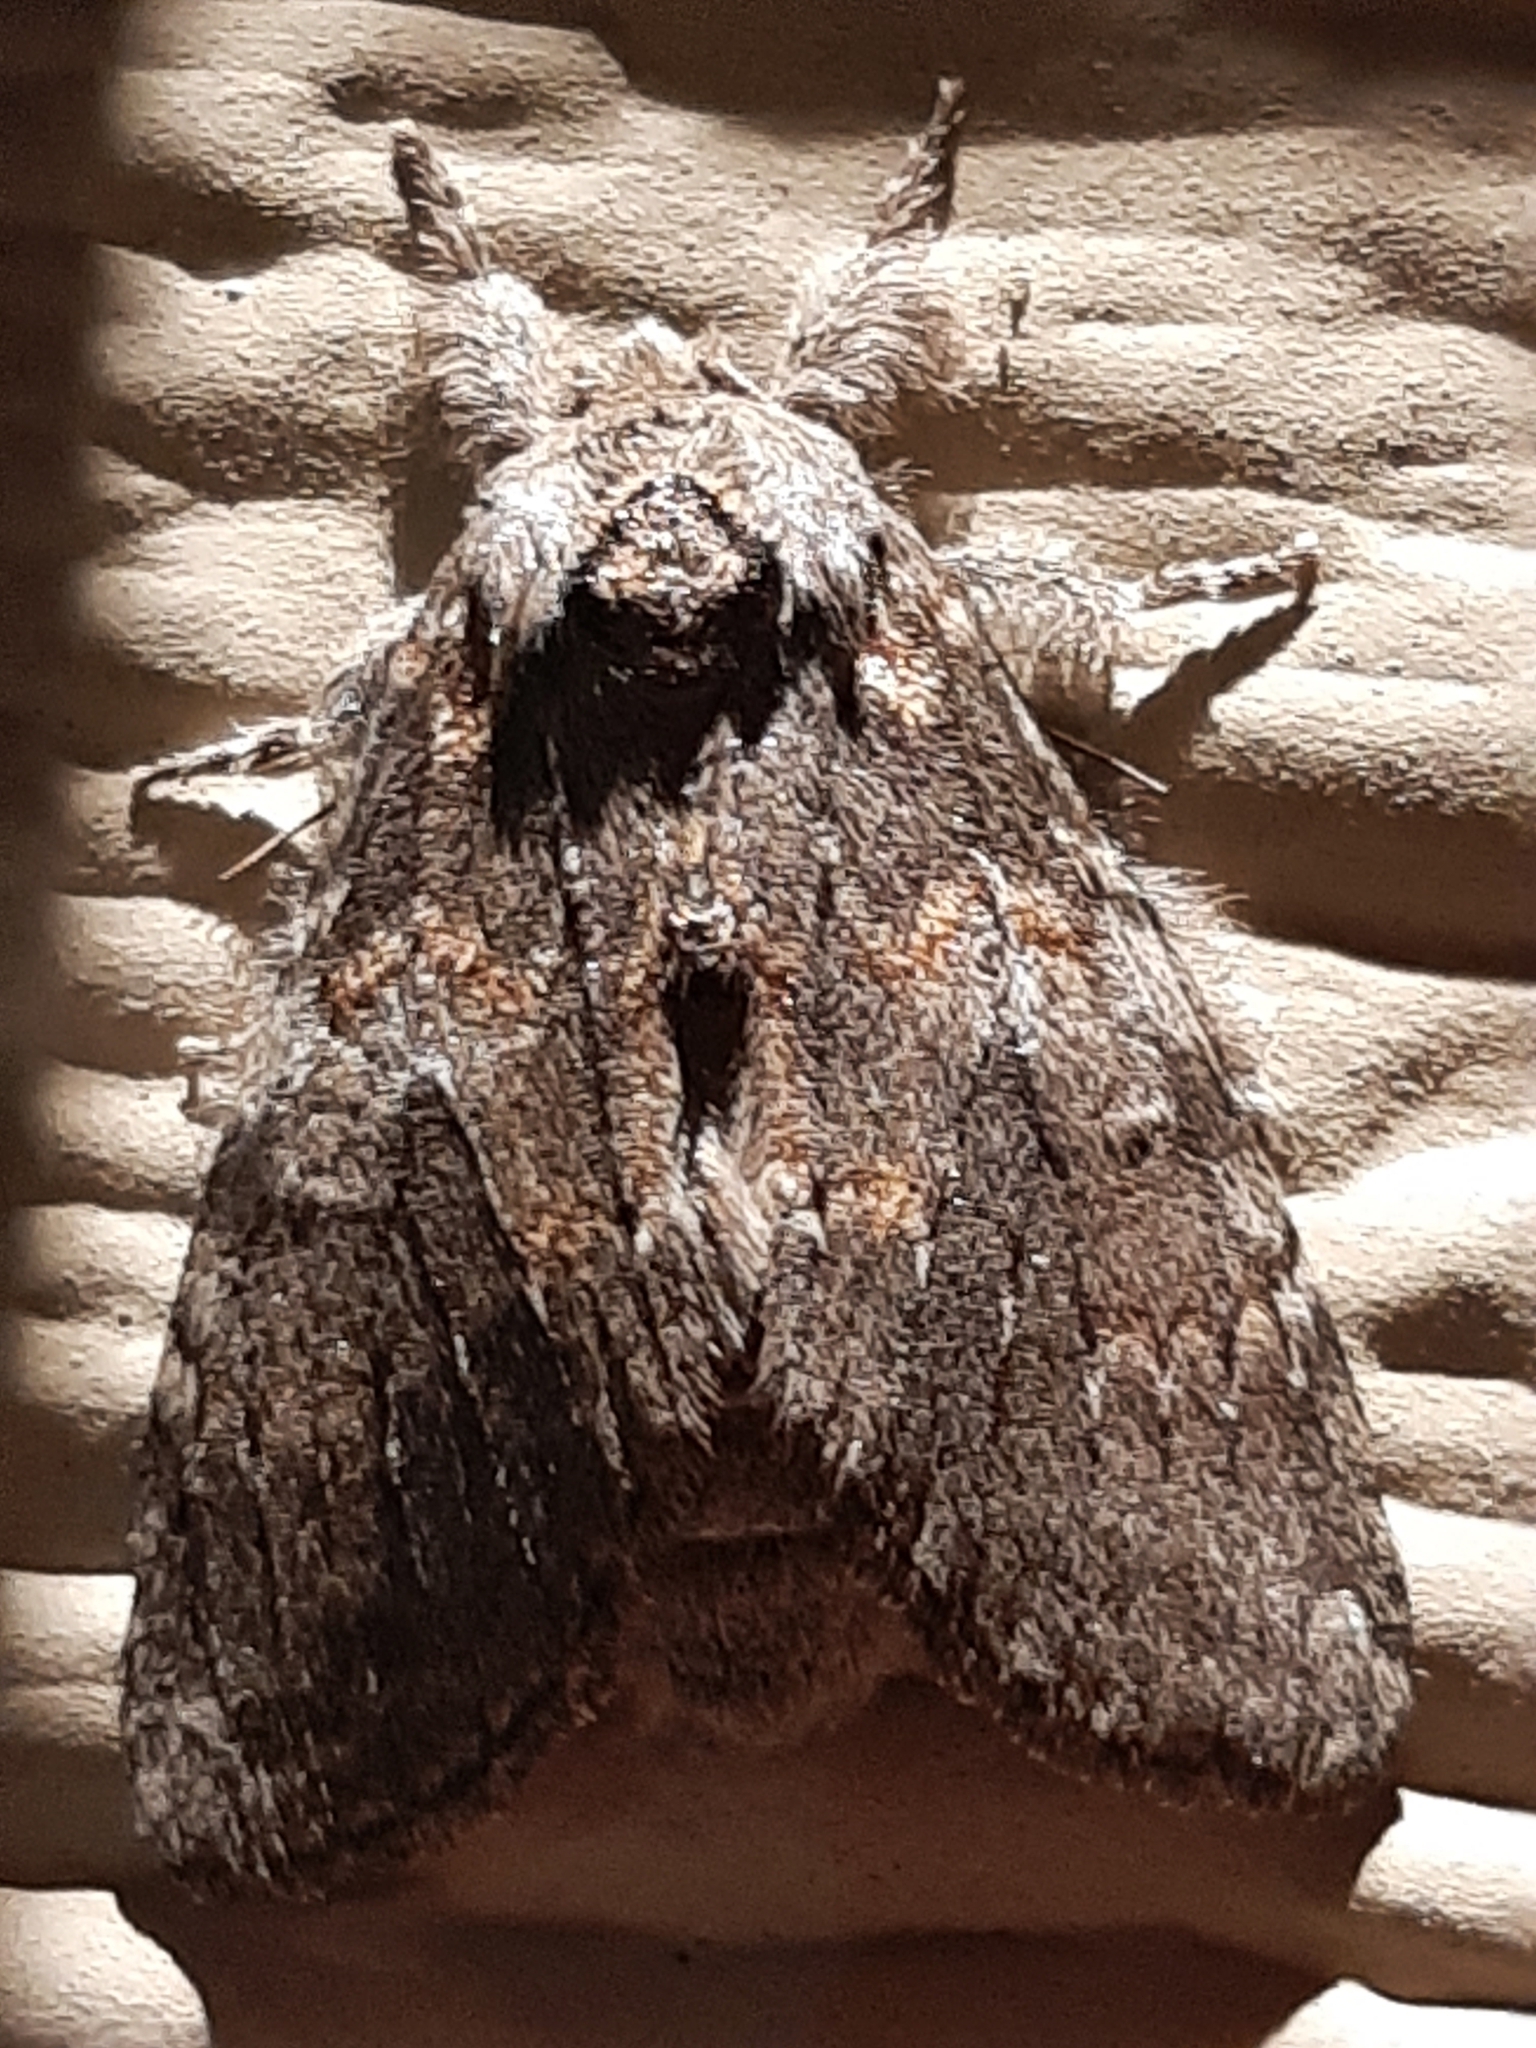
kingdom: Animalia
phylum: Arthropoda
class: Insecta
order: Lepidoptera
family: Notodontidae
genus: Peridea
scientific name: Peridea angulosa
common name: Angulose prominent
